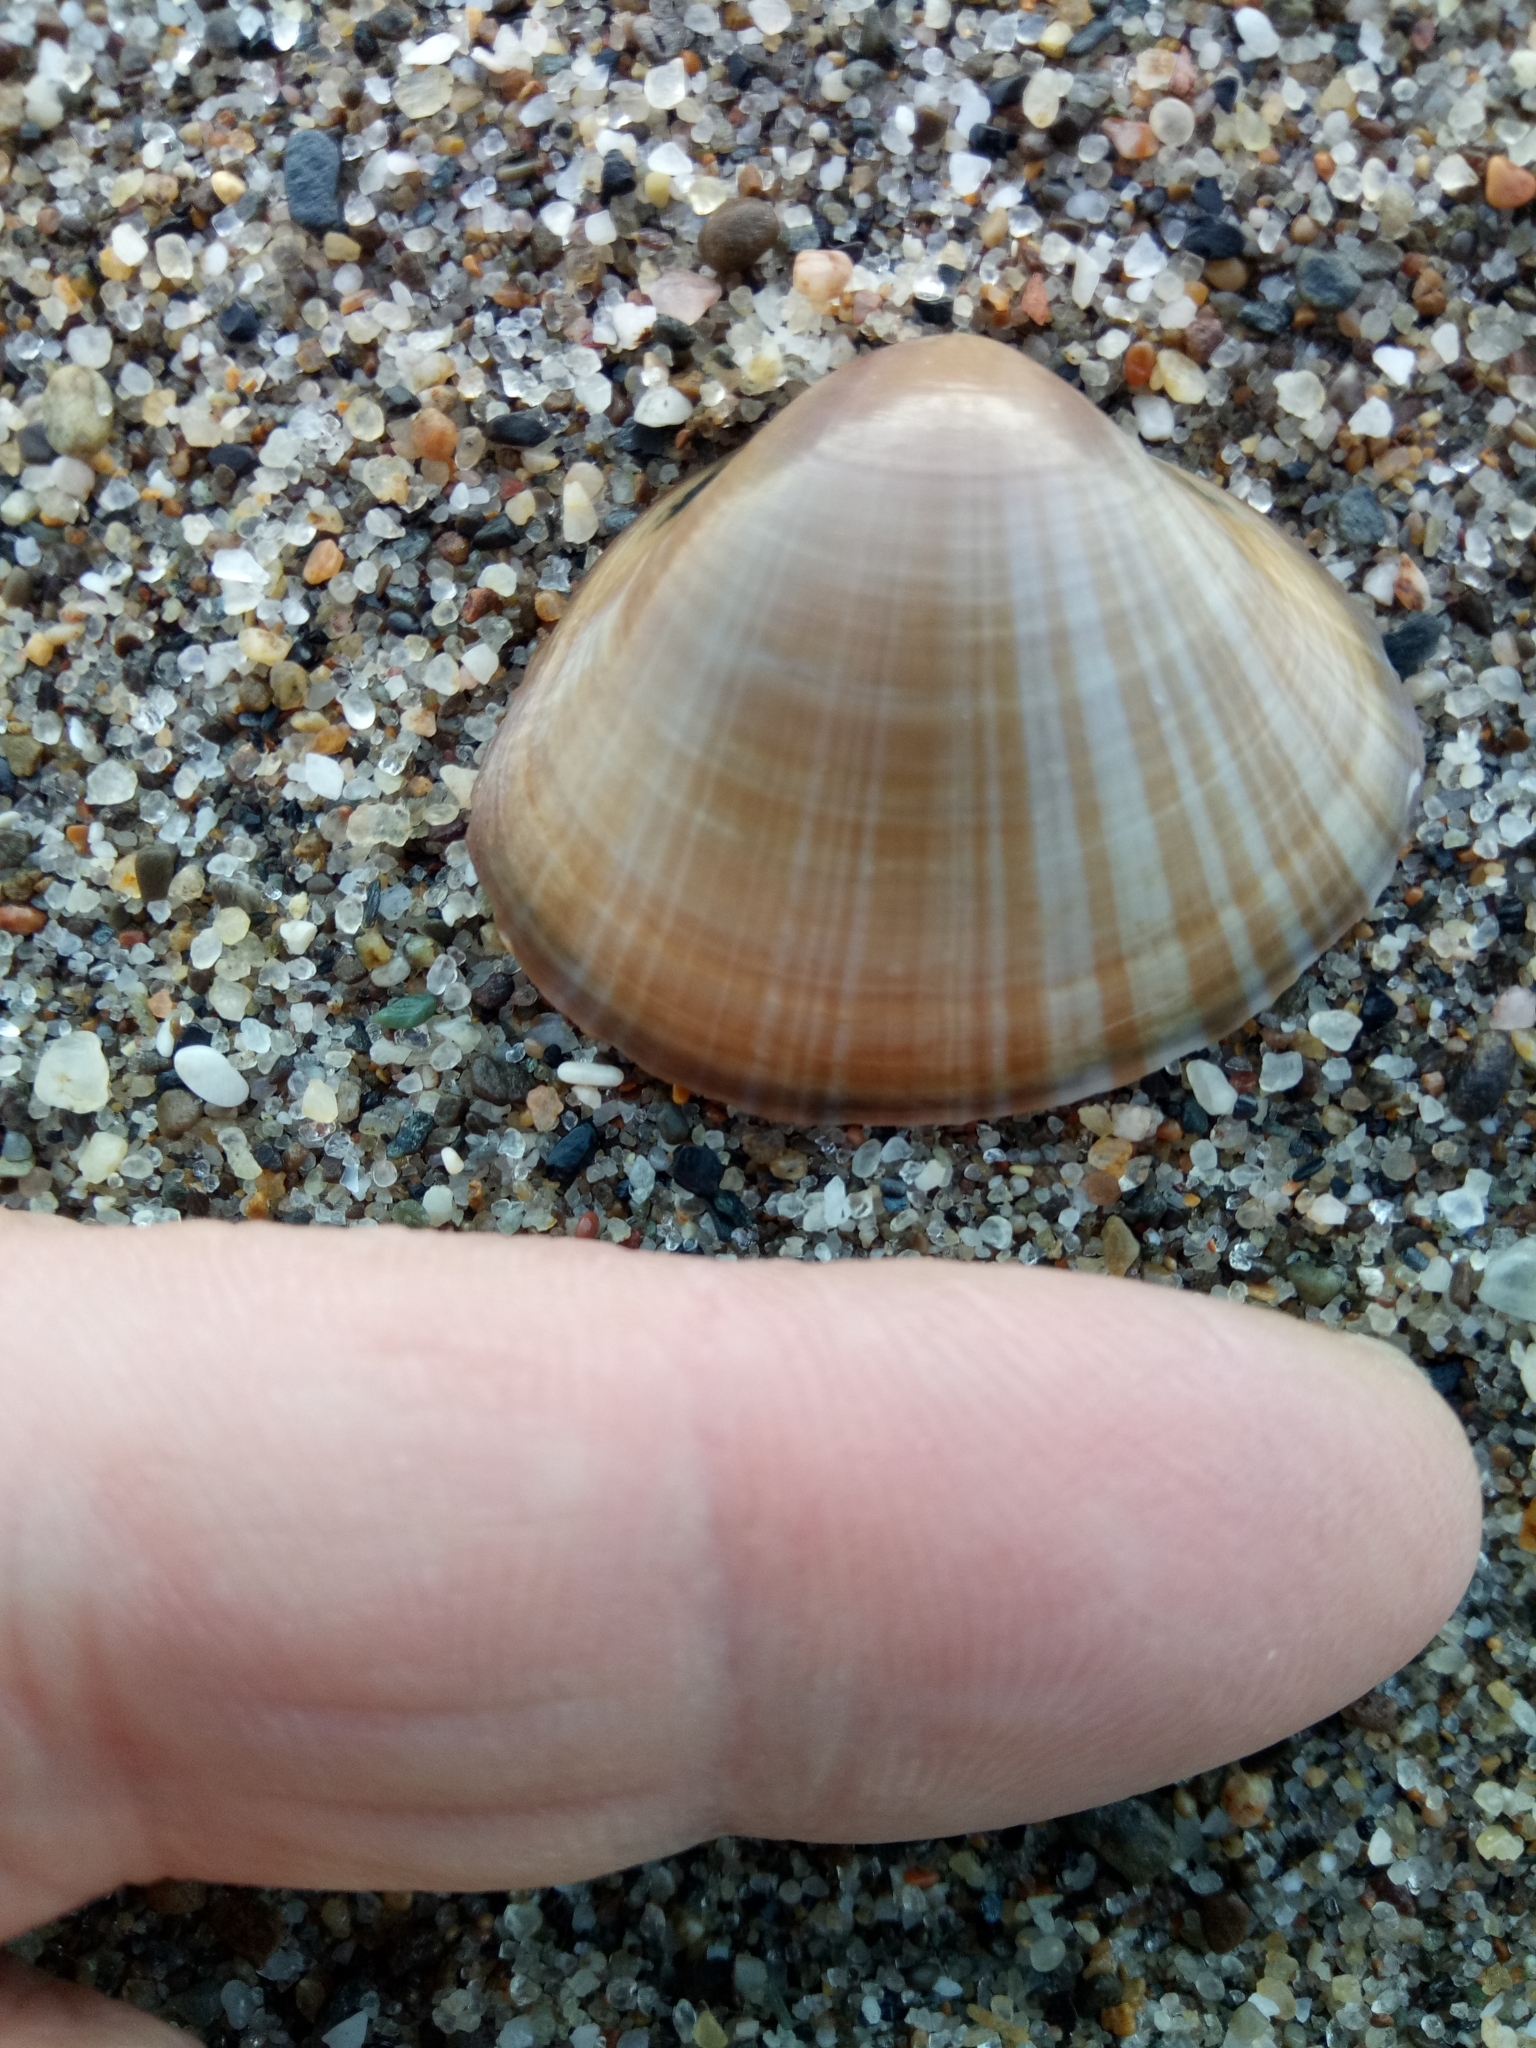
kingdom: Animalia
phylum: Mollusca
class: Bivalvia
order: Venerida
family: Mactridae
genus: Mactra
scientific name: Mactra stultorum
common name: Rayed trough shell
